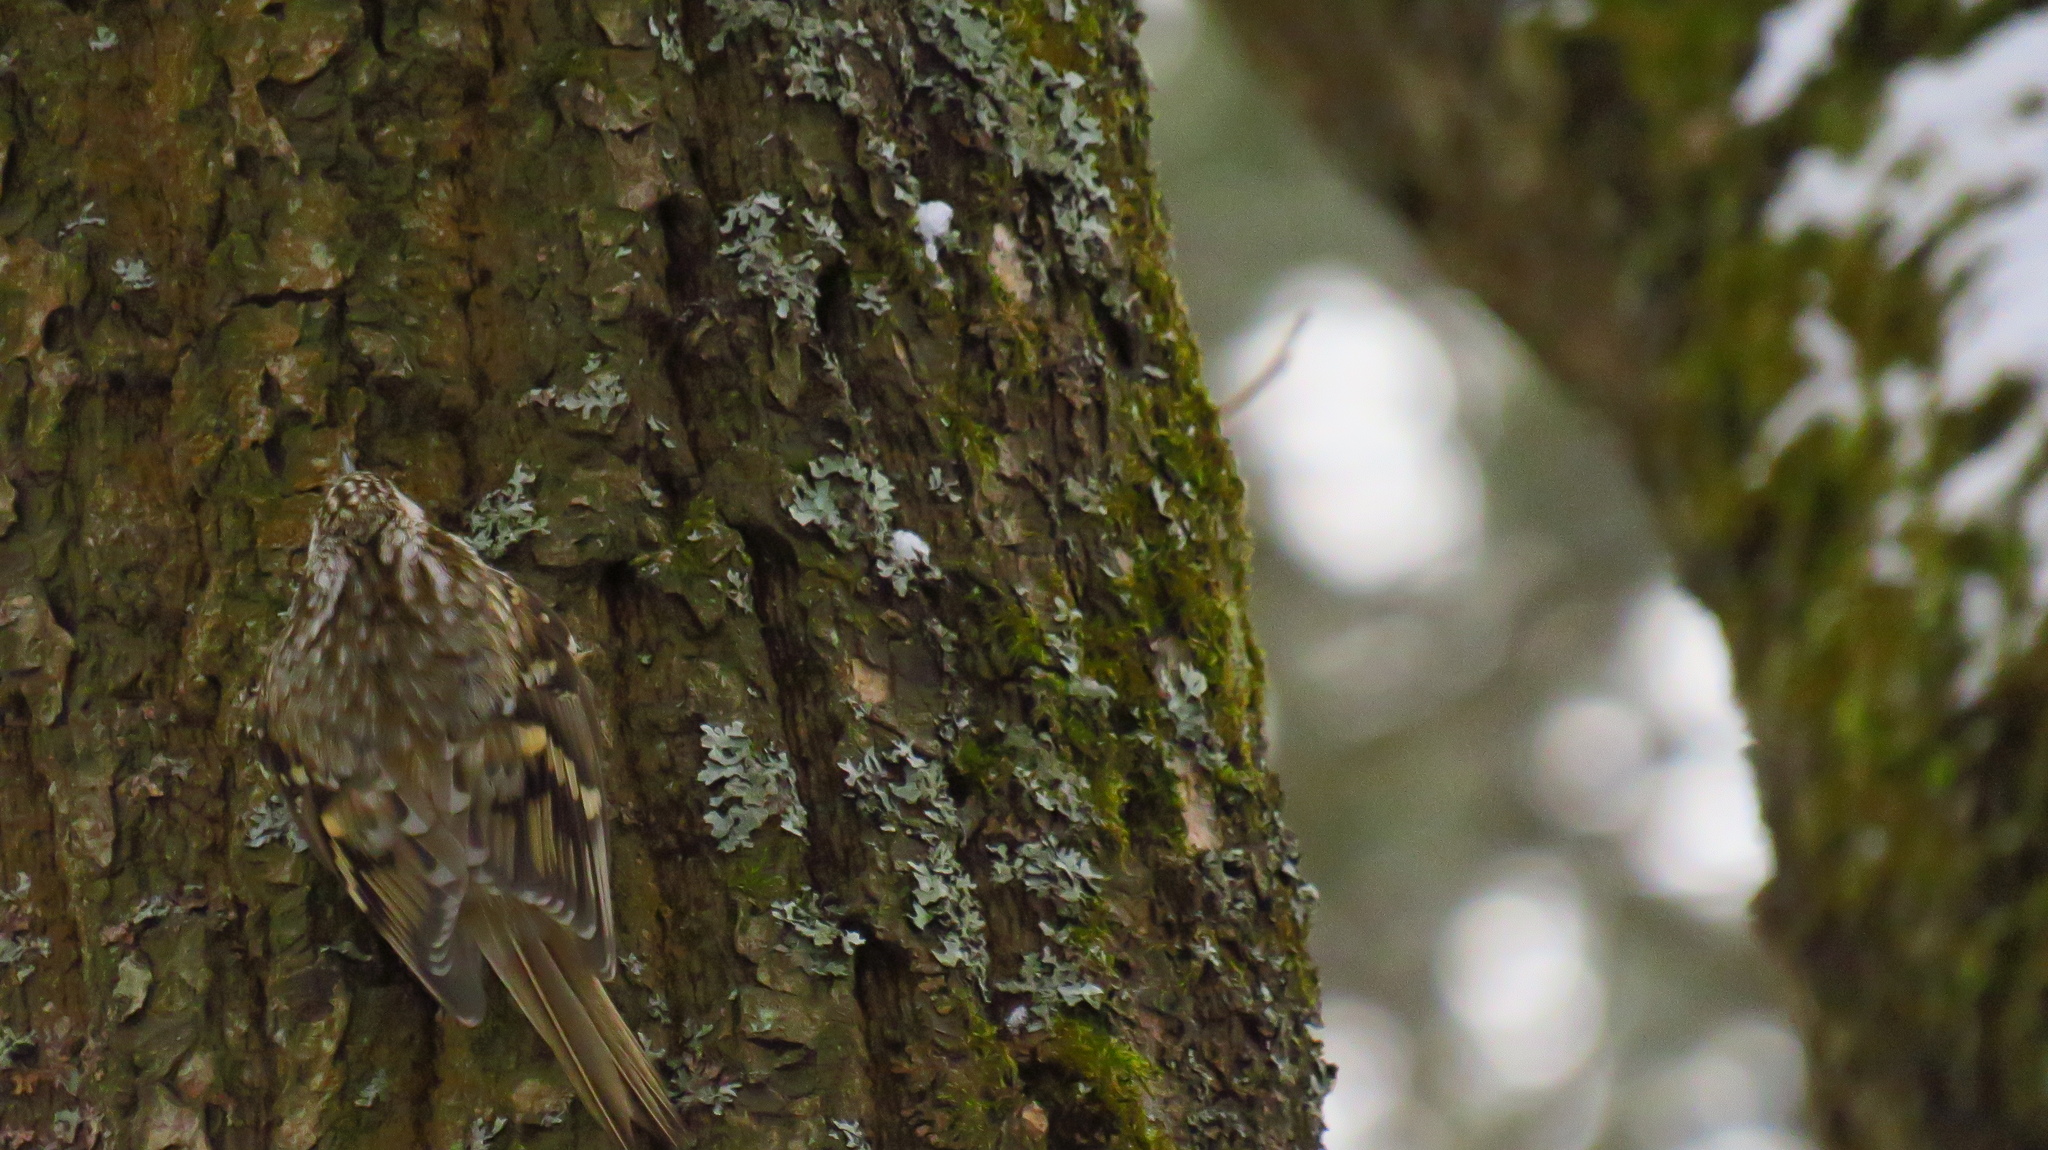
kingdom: Animalia
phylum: Chordata
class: Aves
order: Passeriformes
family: Certhiidae
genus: Certhia
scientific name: Certhia familiaris
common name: Eurasian treecreeper
